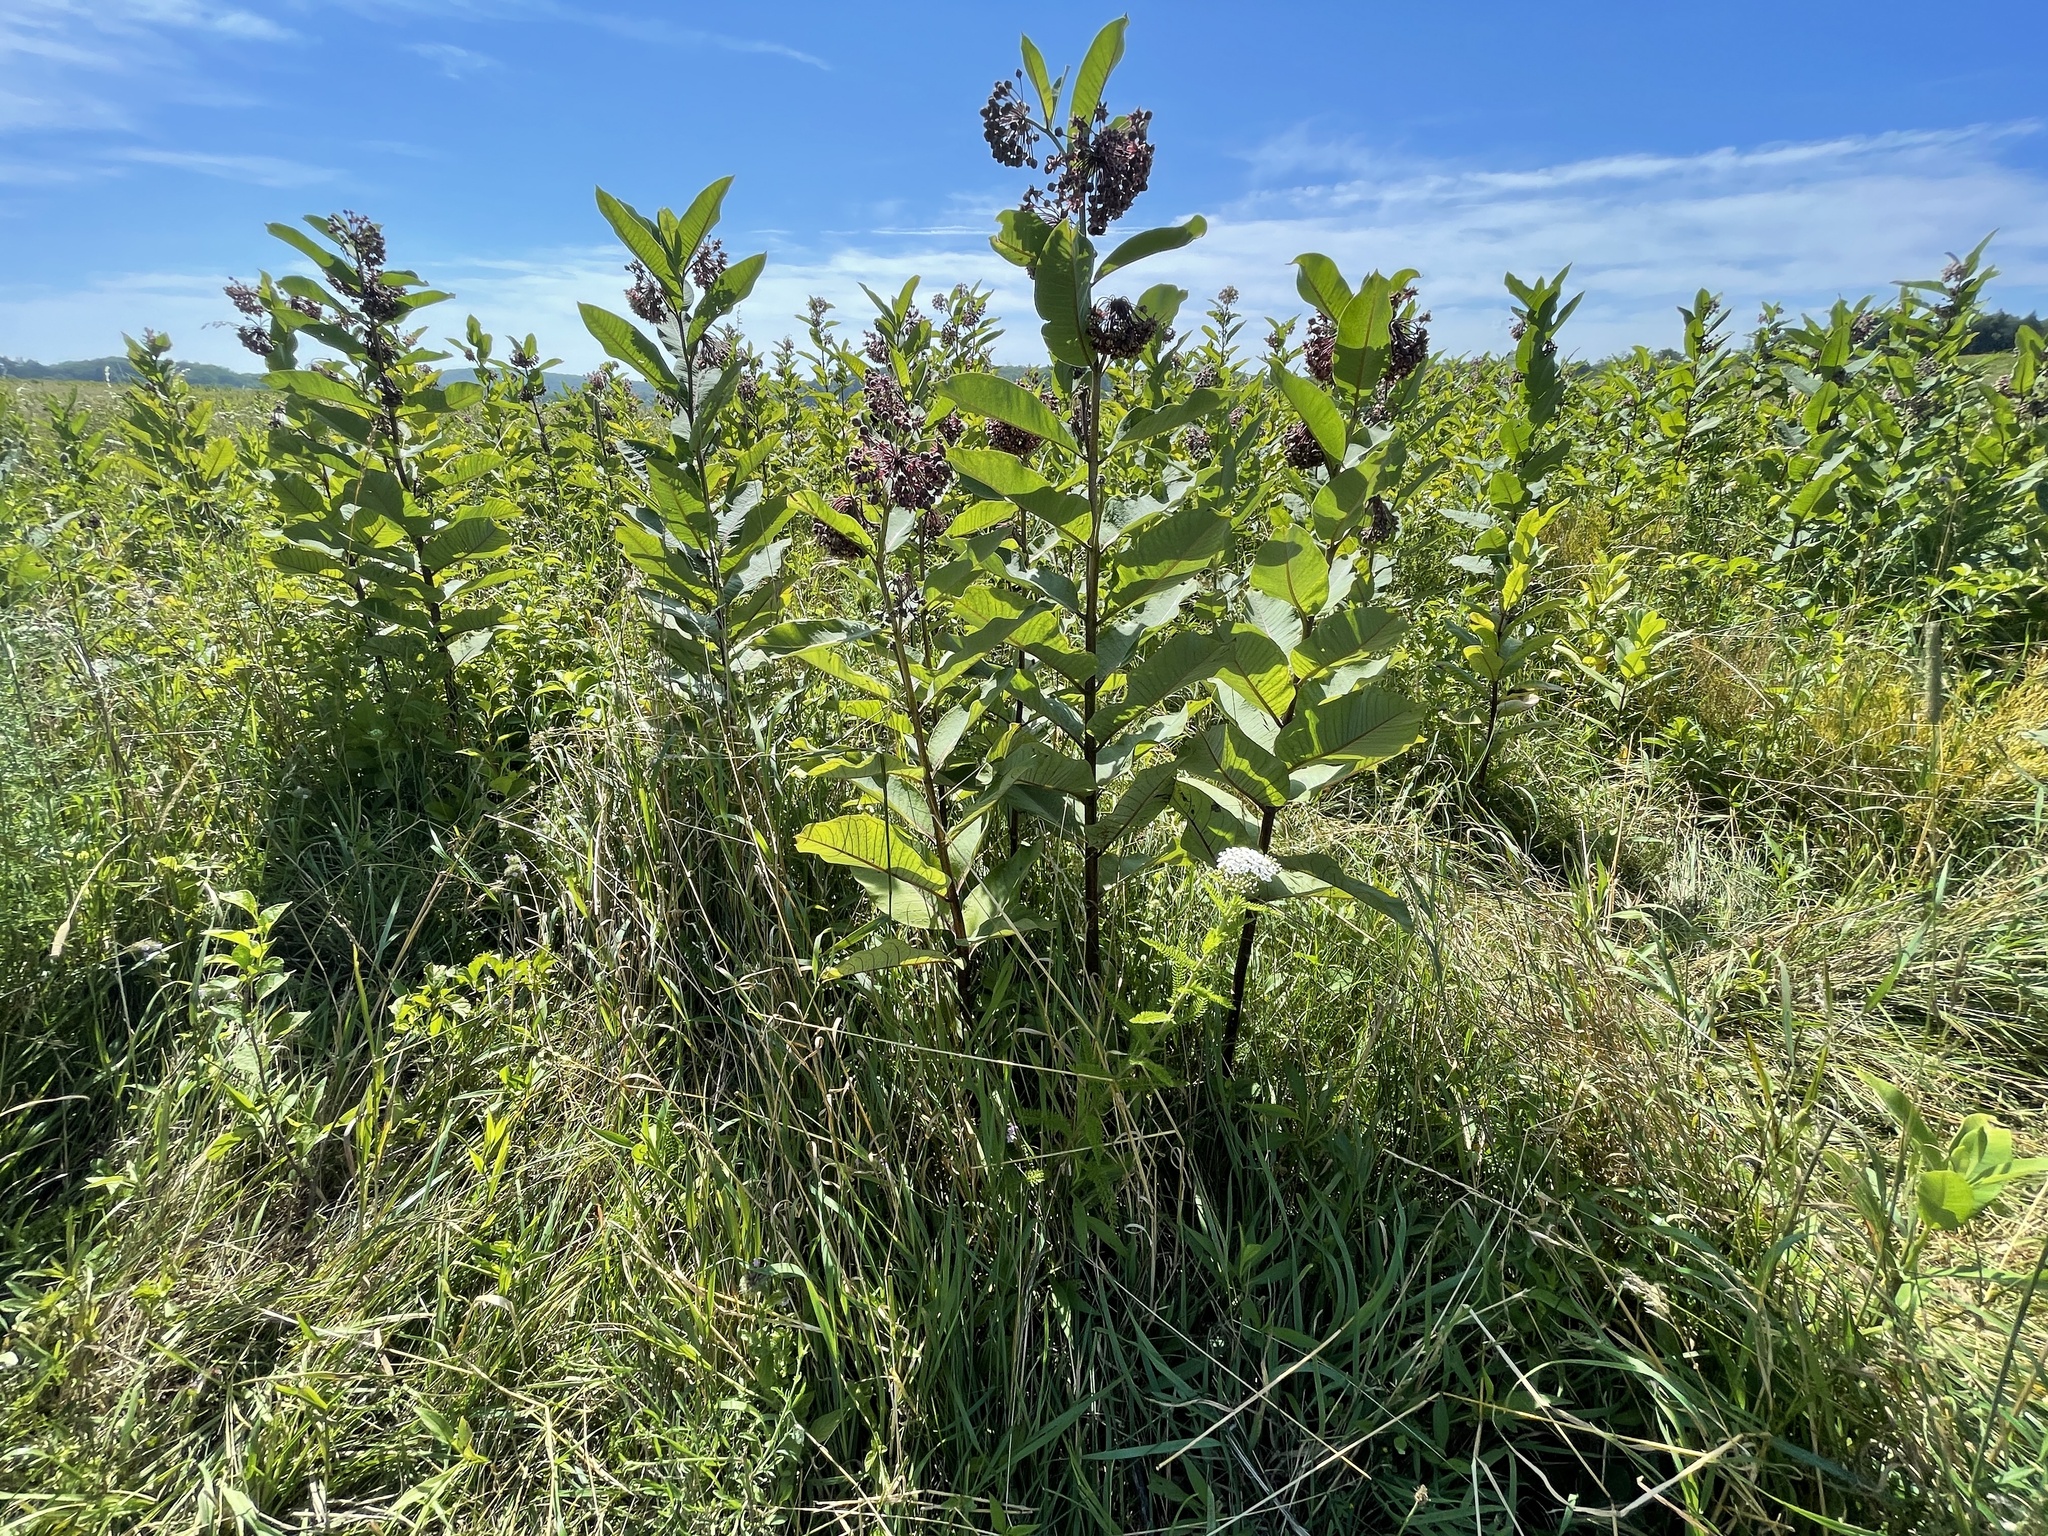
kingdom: Plantae
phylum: Tracheophyta
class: Magnoliopsida
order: Gentianales
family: Apocynaceae
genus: Asclepias
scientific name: Asclepias syriaca
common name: Common milkweed
